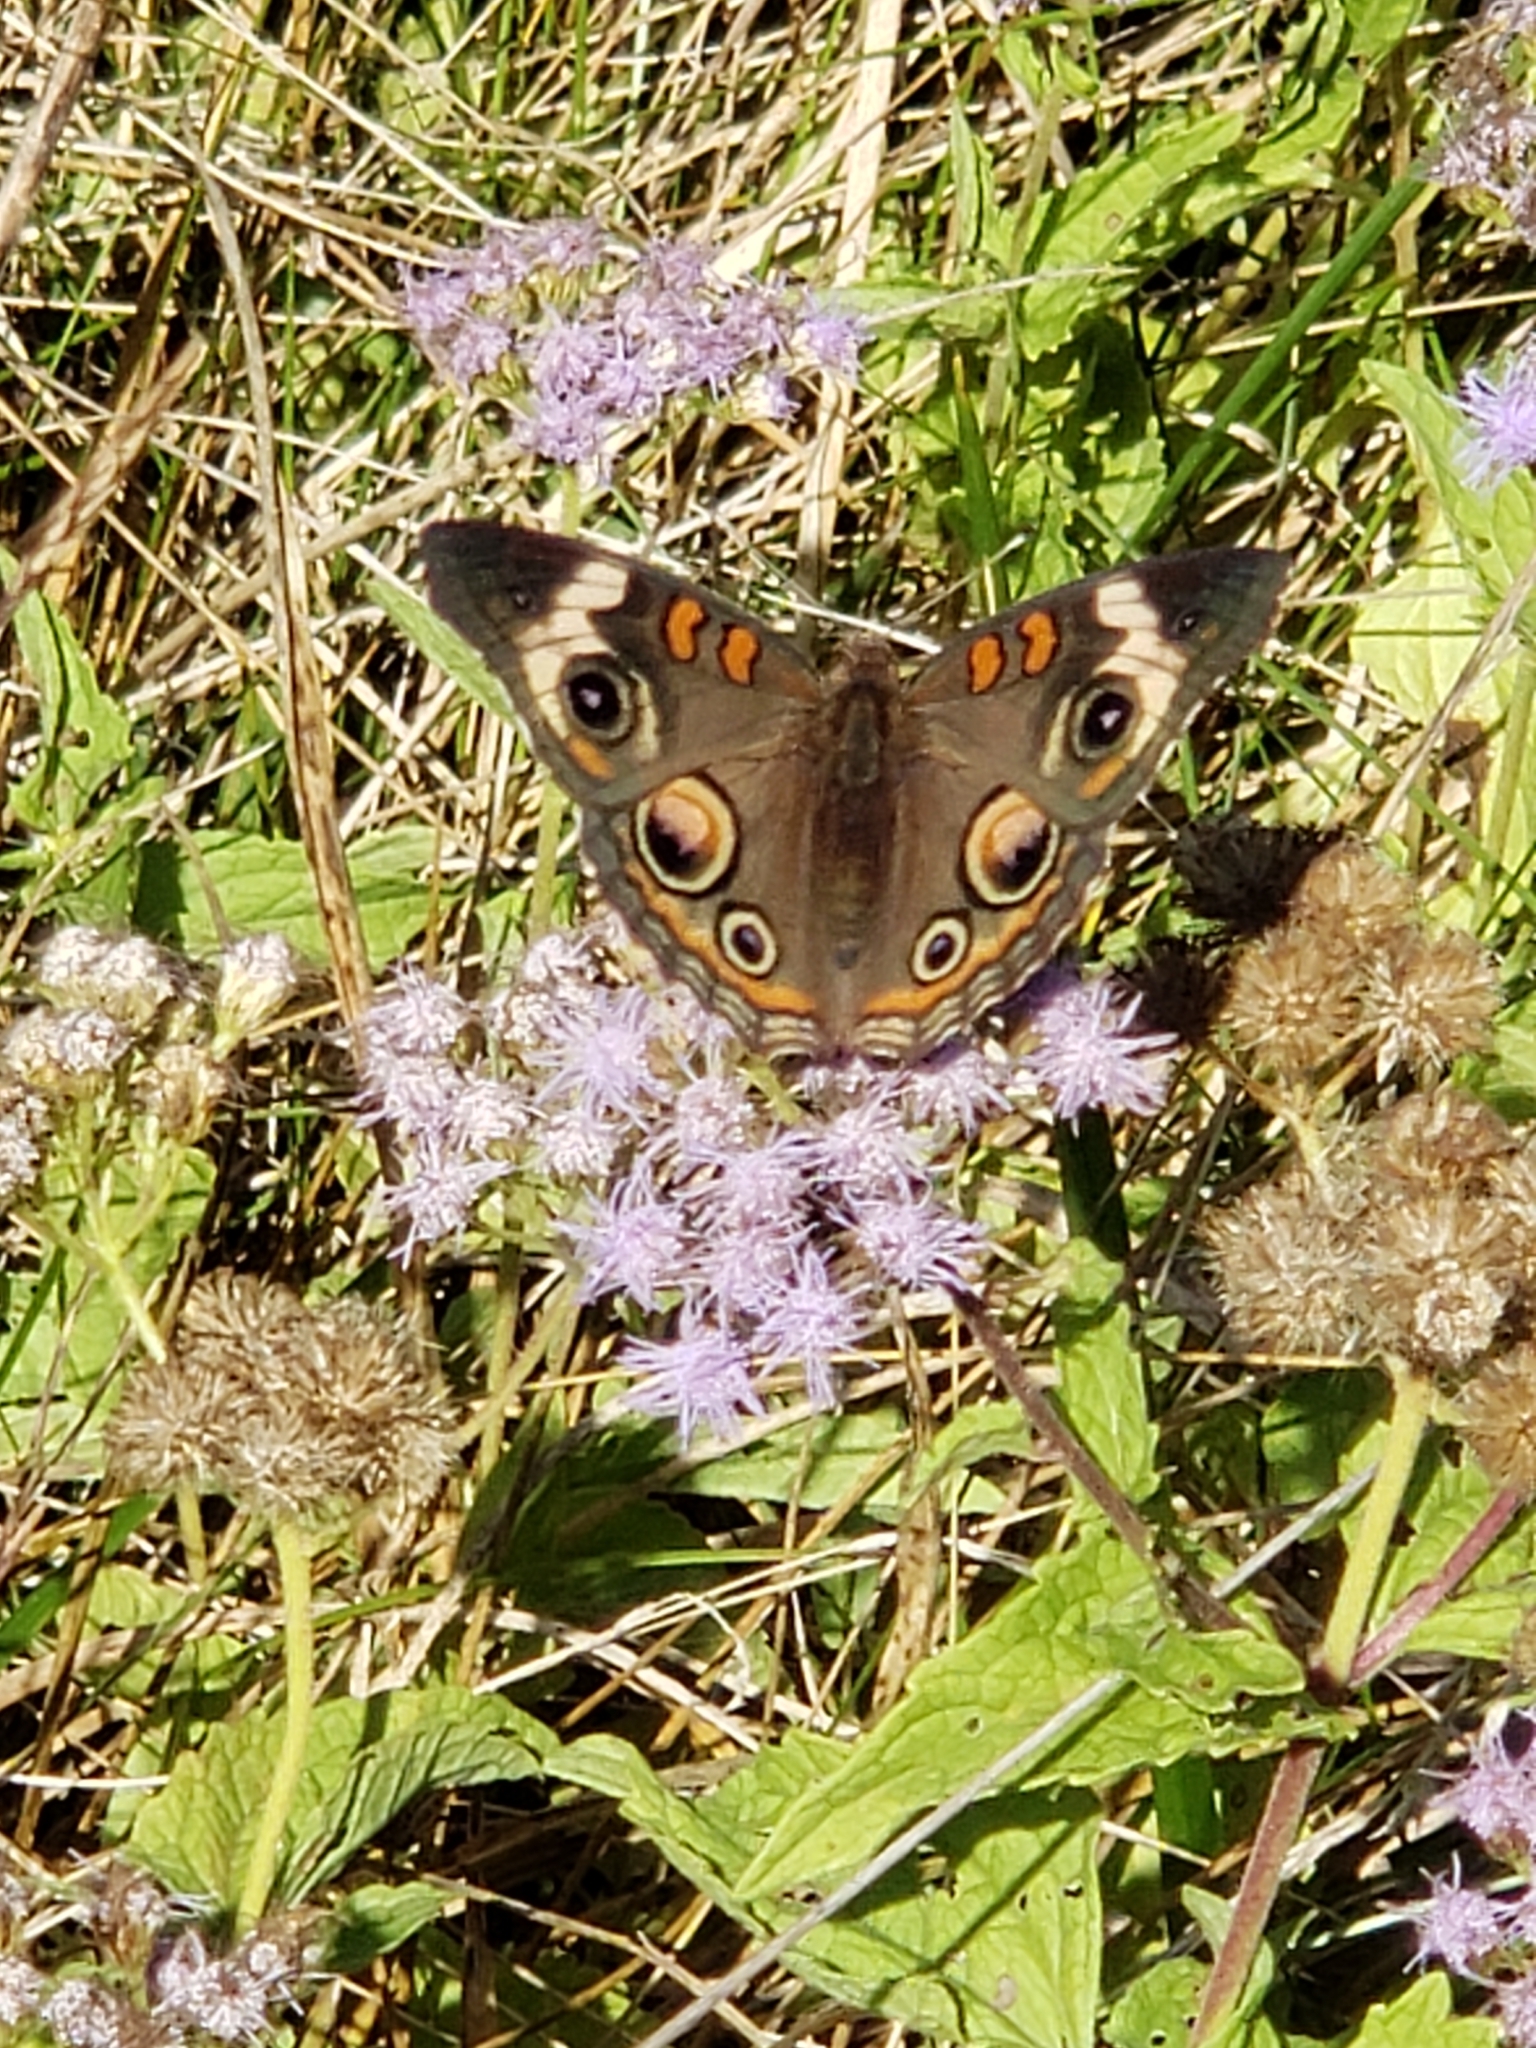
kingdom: Animalia
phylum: Arthropoda
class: Insecta
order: Lepidoptera
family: Nymphalidae
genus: Junonia
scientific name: Junonia coenia
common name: Common buckeye
